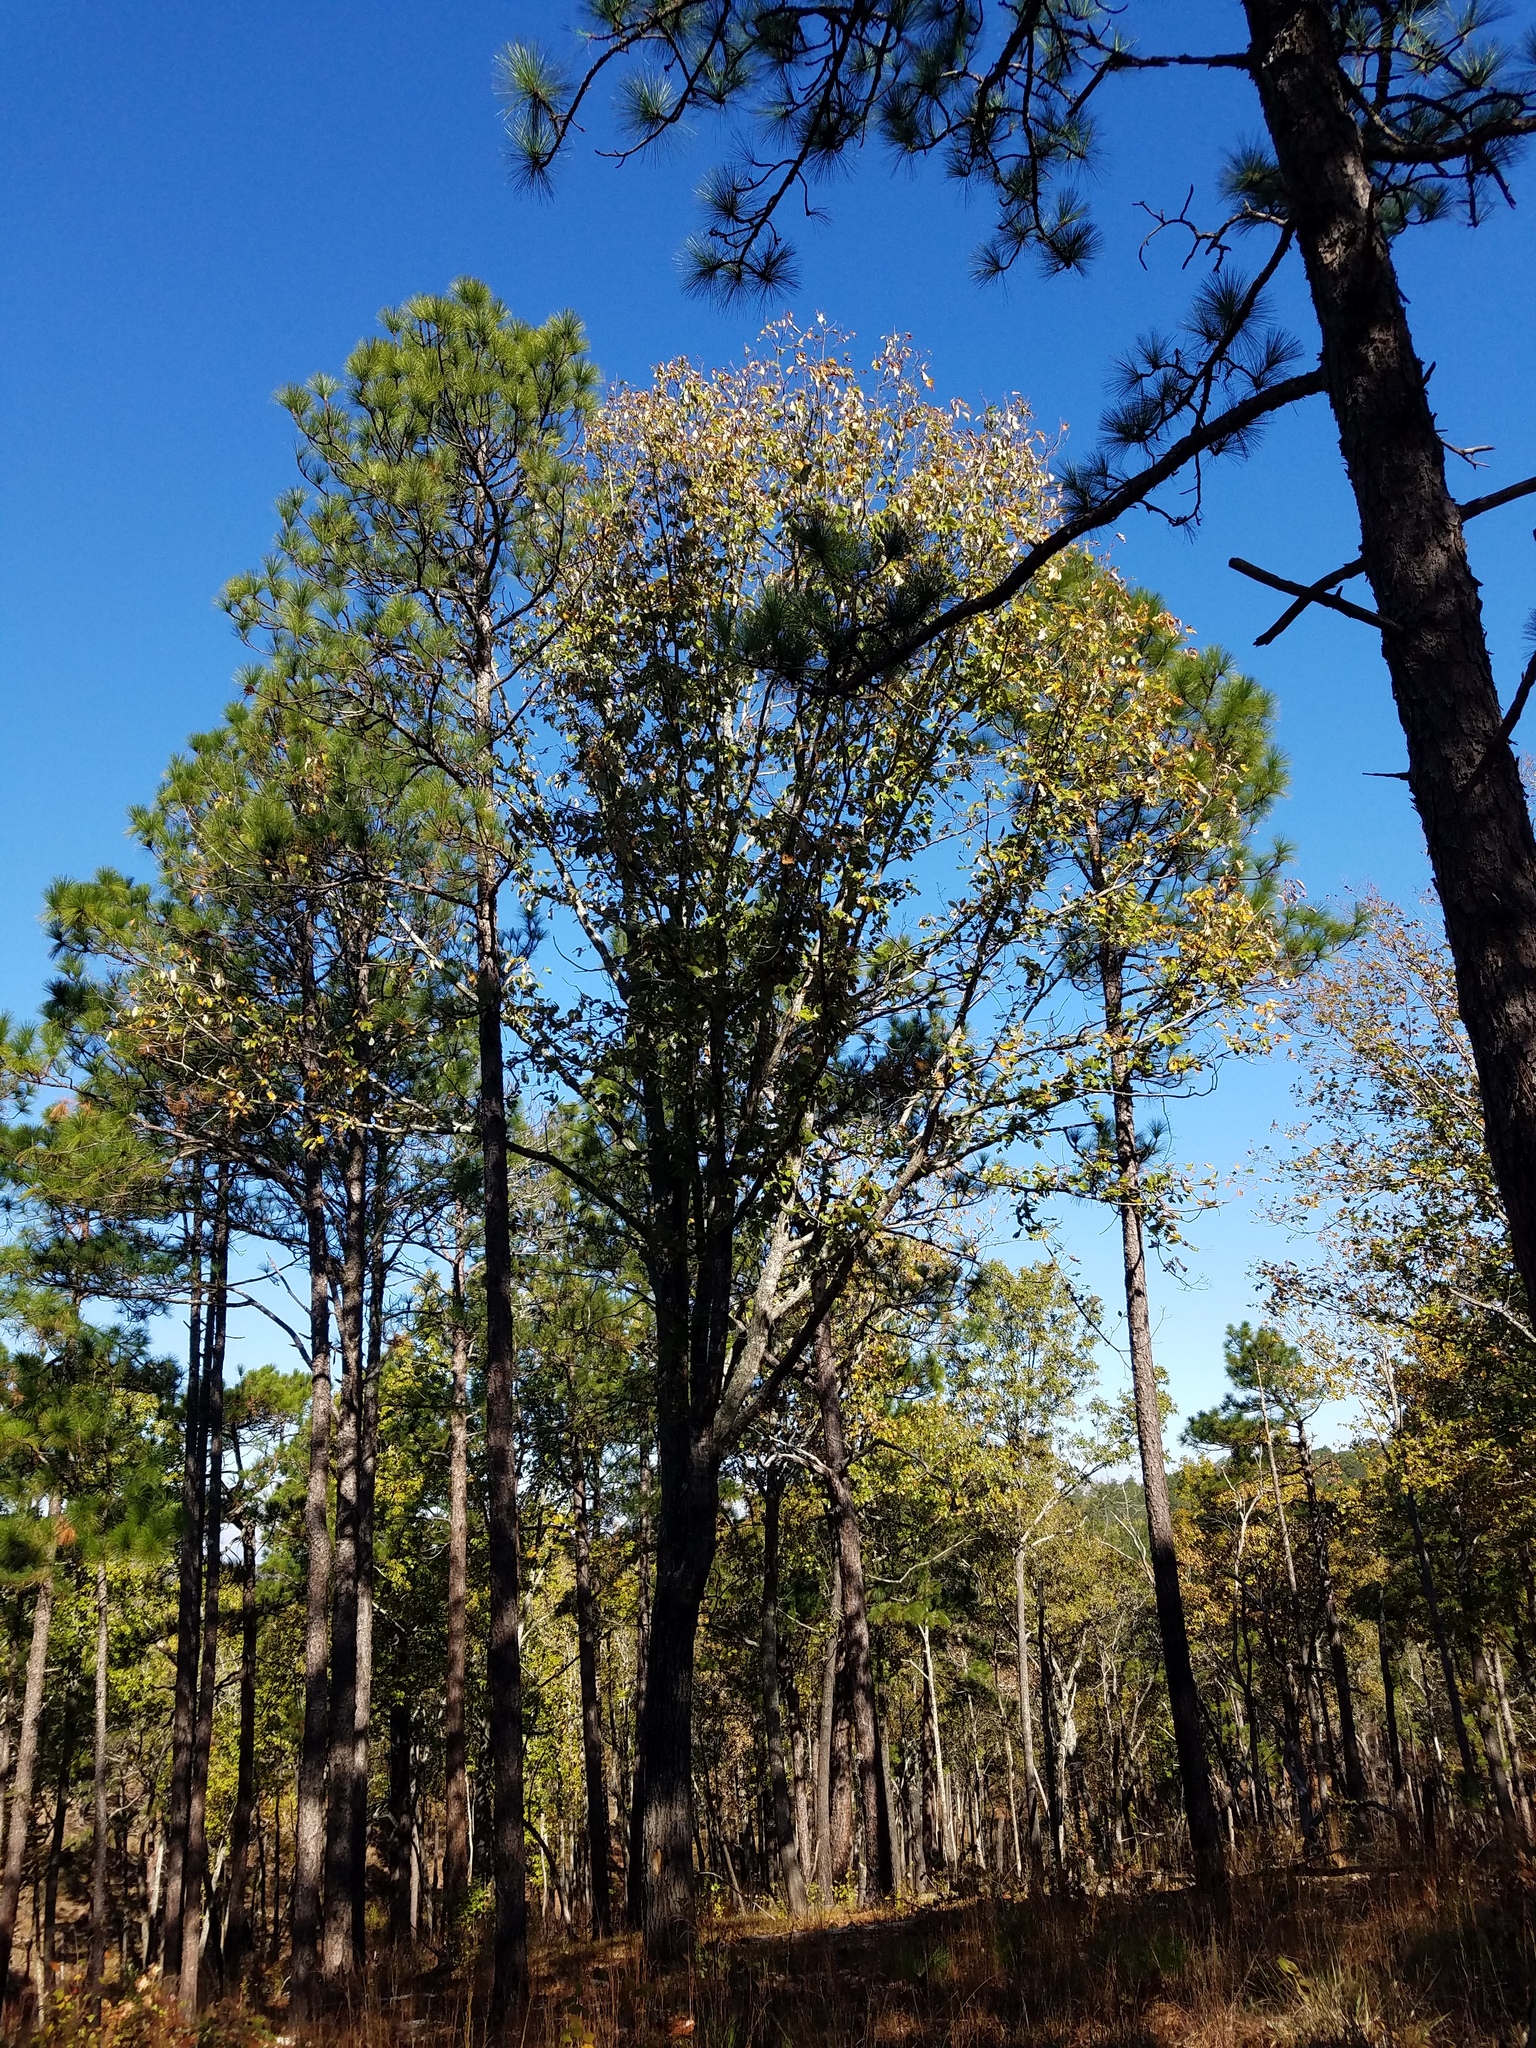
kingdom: Plantae
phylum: Tracheophyta
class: Magnoliopsida
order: Fagales
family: Fagaceae
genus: Quercus
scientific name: Quercus montana
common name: Chestnut oak
